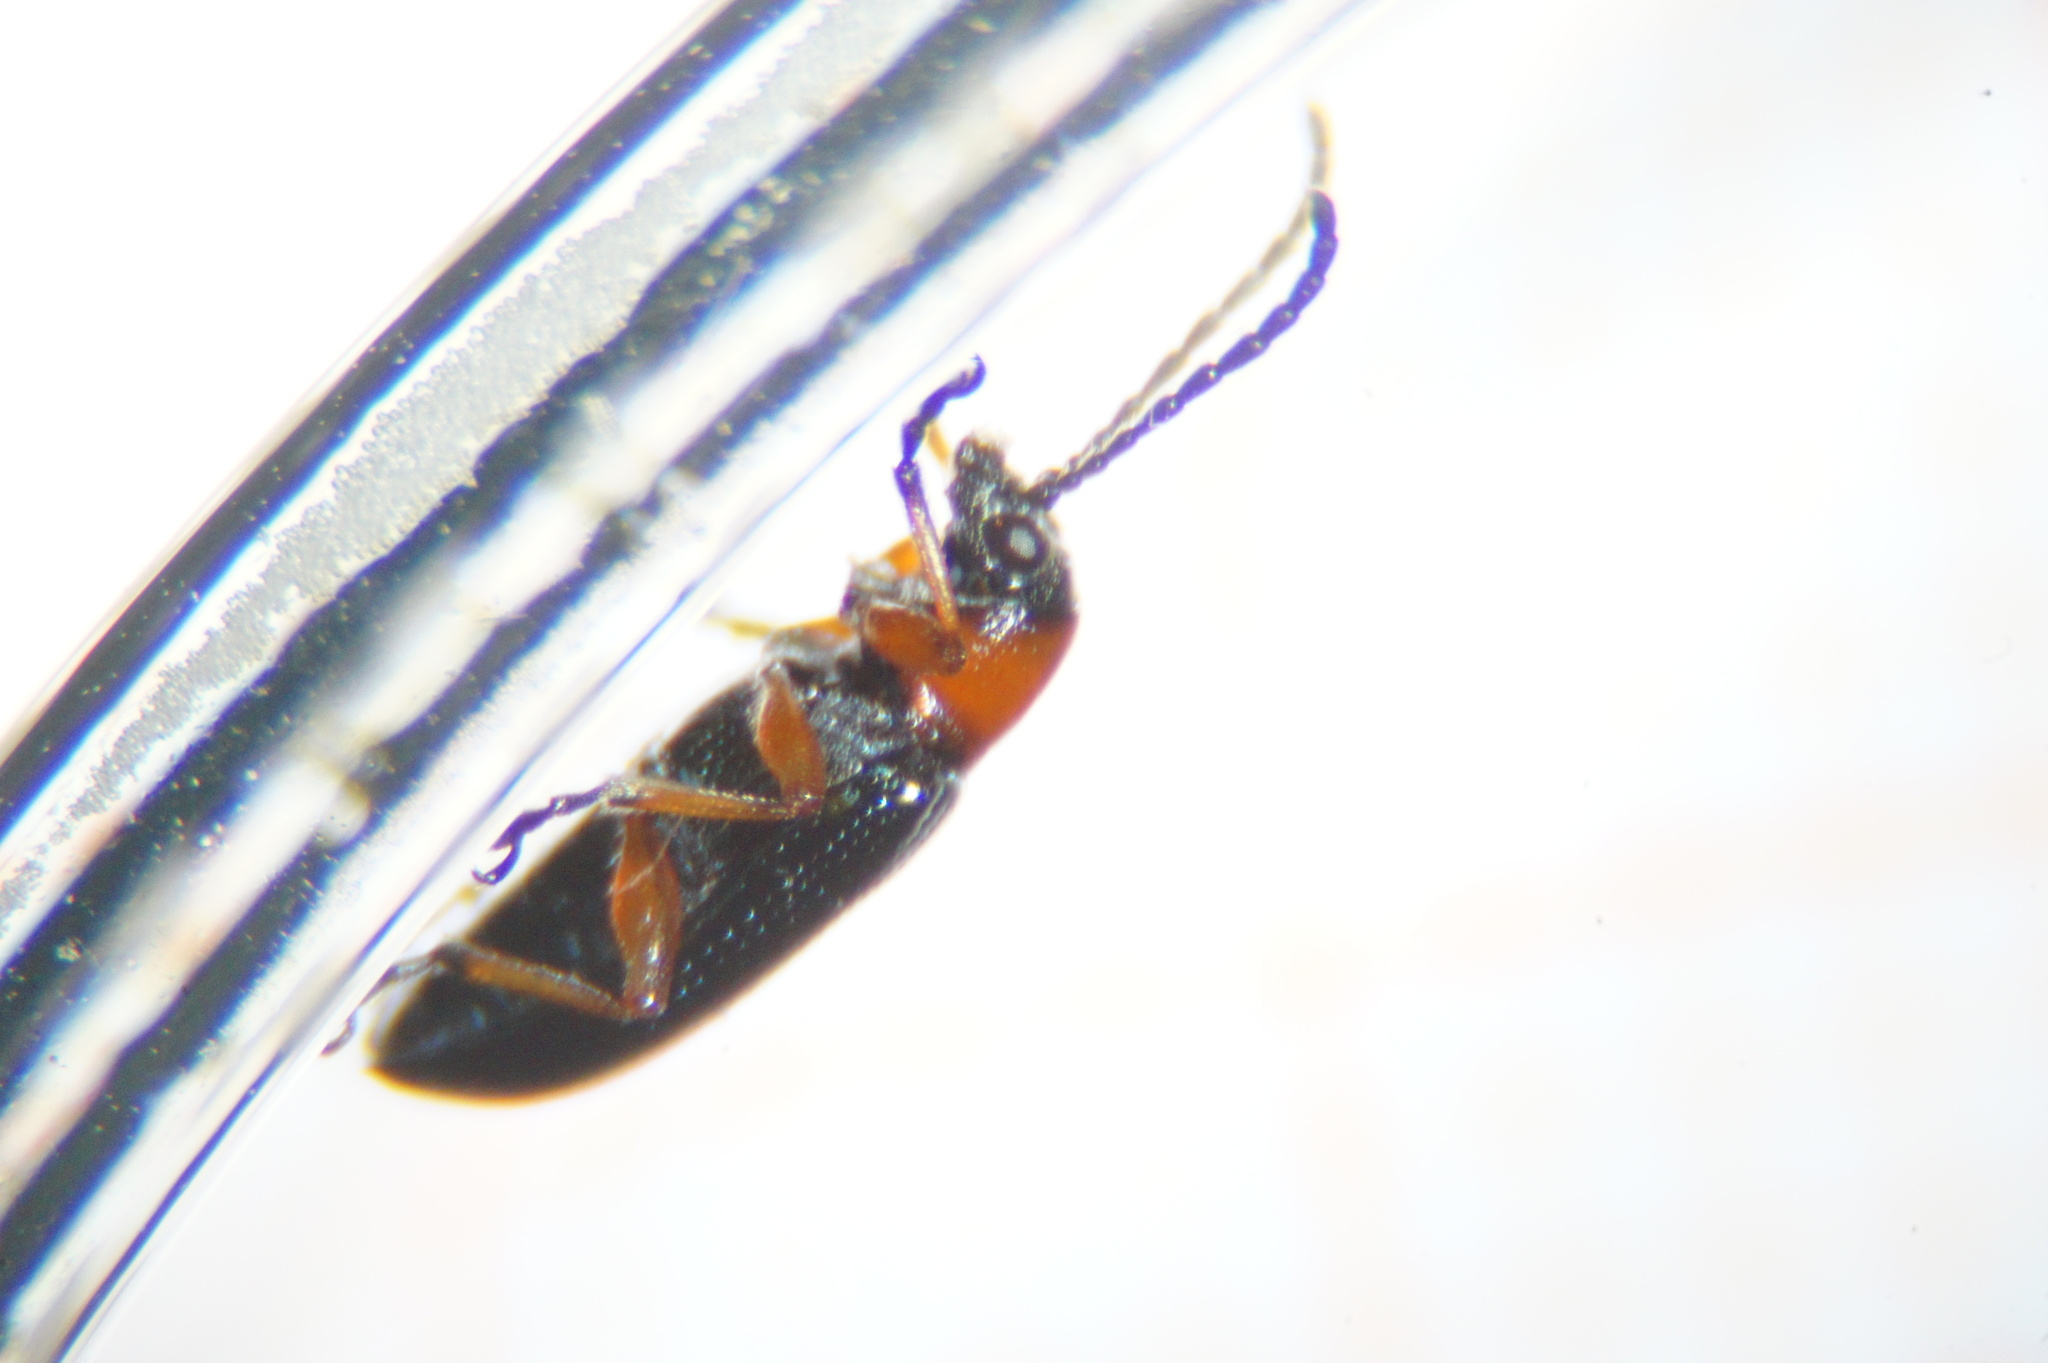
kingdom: Animalia
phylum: Arthropoda
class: Insecta
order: Coleoptera
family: Chrysomelidae
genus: Oulema
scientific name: Oulema
